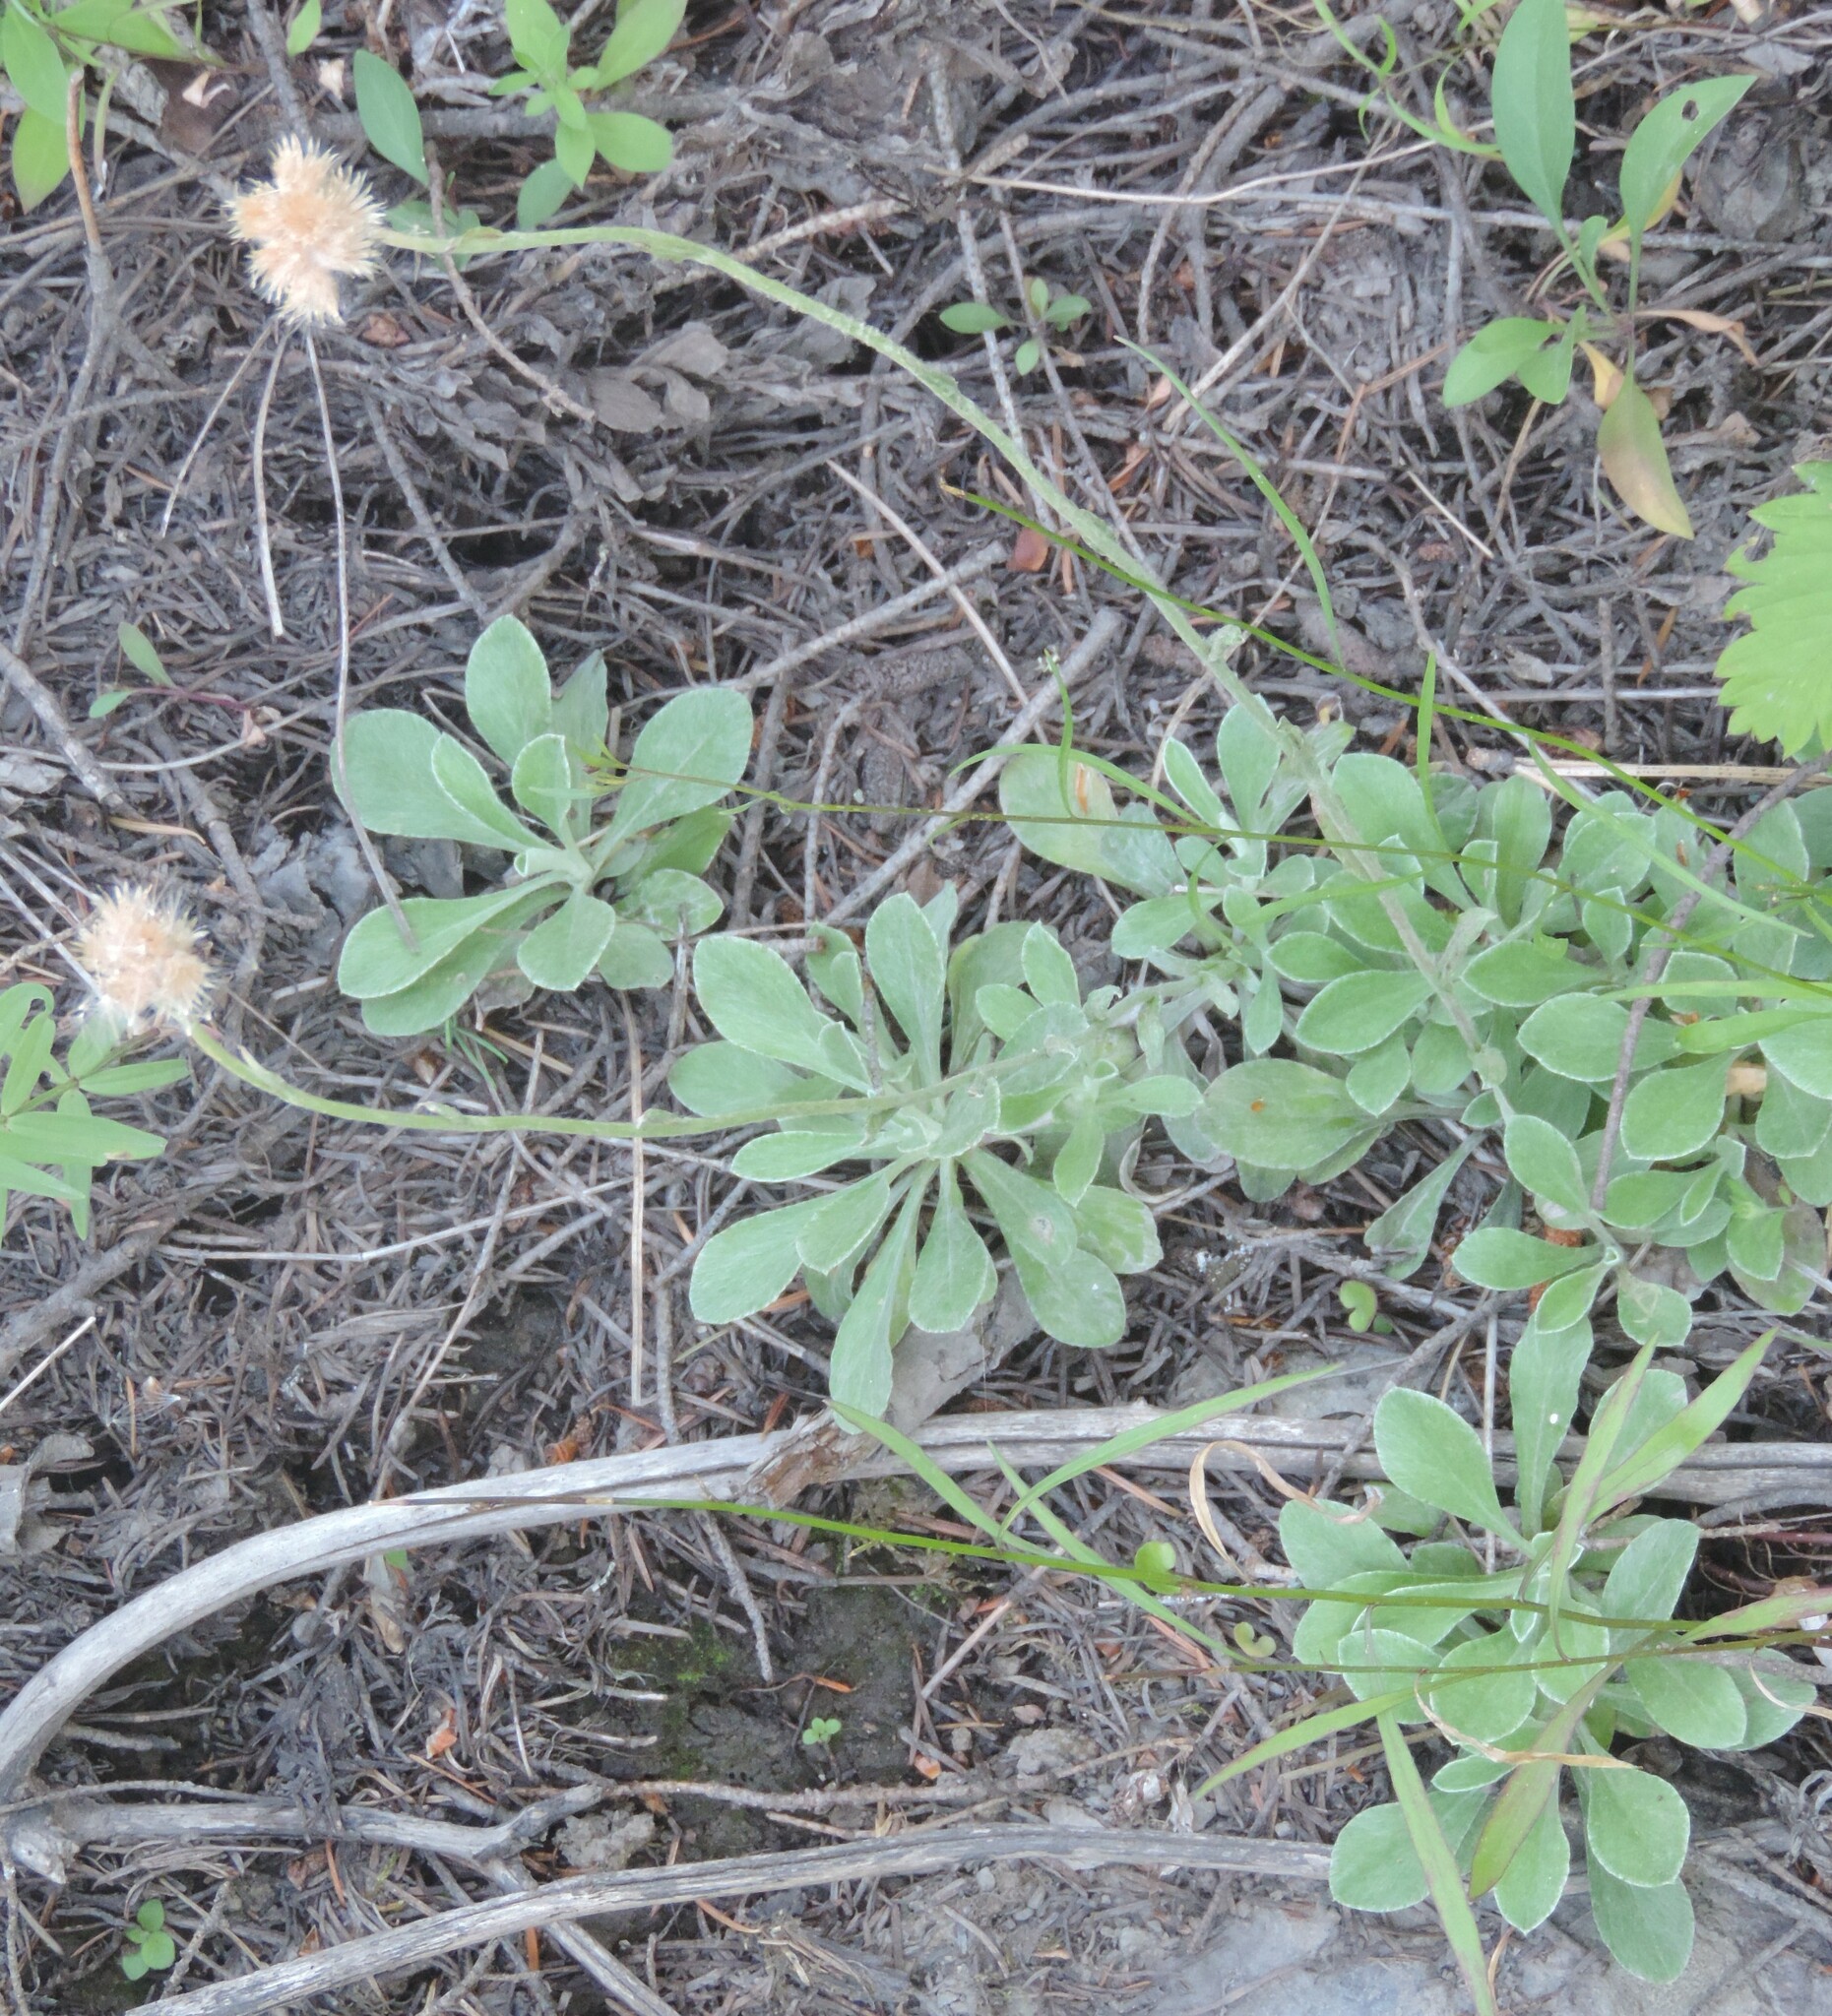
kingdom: Plantae
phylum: Tracheophyta
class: Magnoliopsida
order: Asterales
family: Asteraceae
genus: Antennaria
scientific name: Antennaria howellii
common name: Howell's pussytoes
